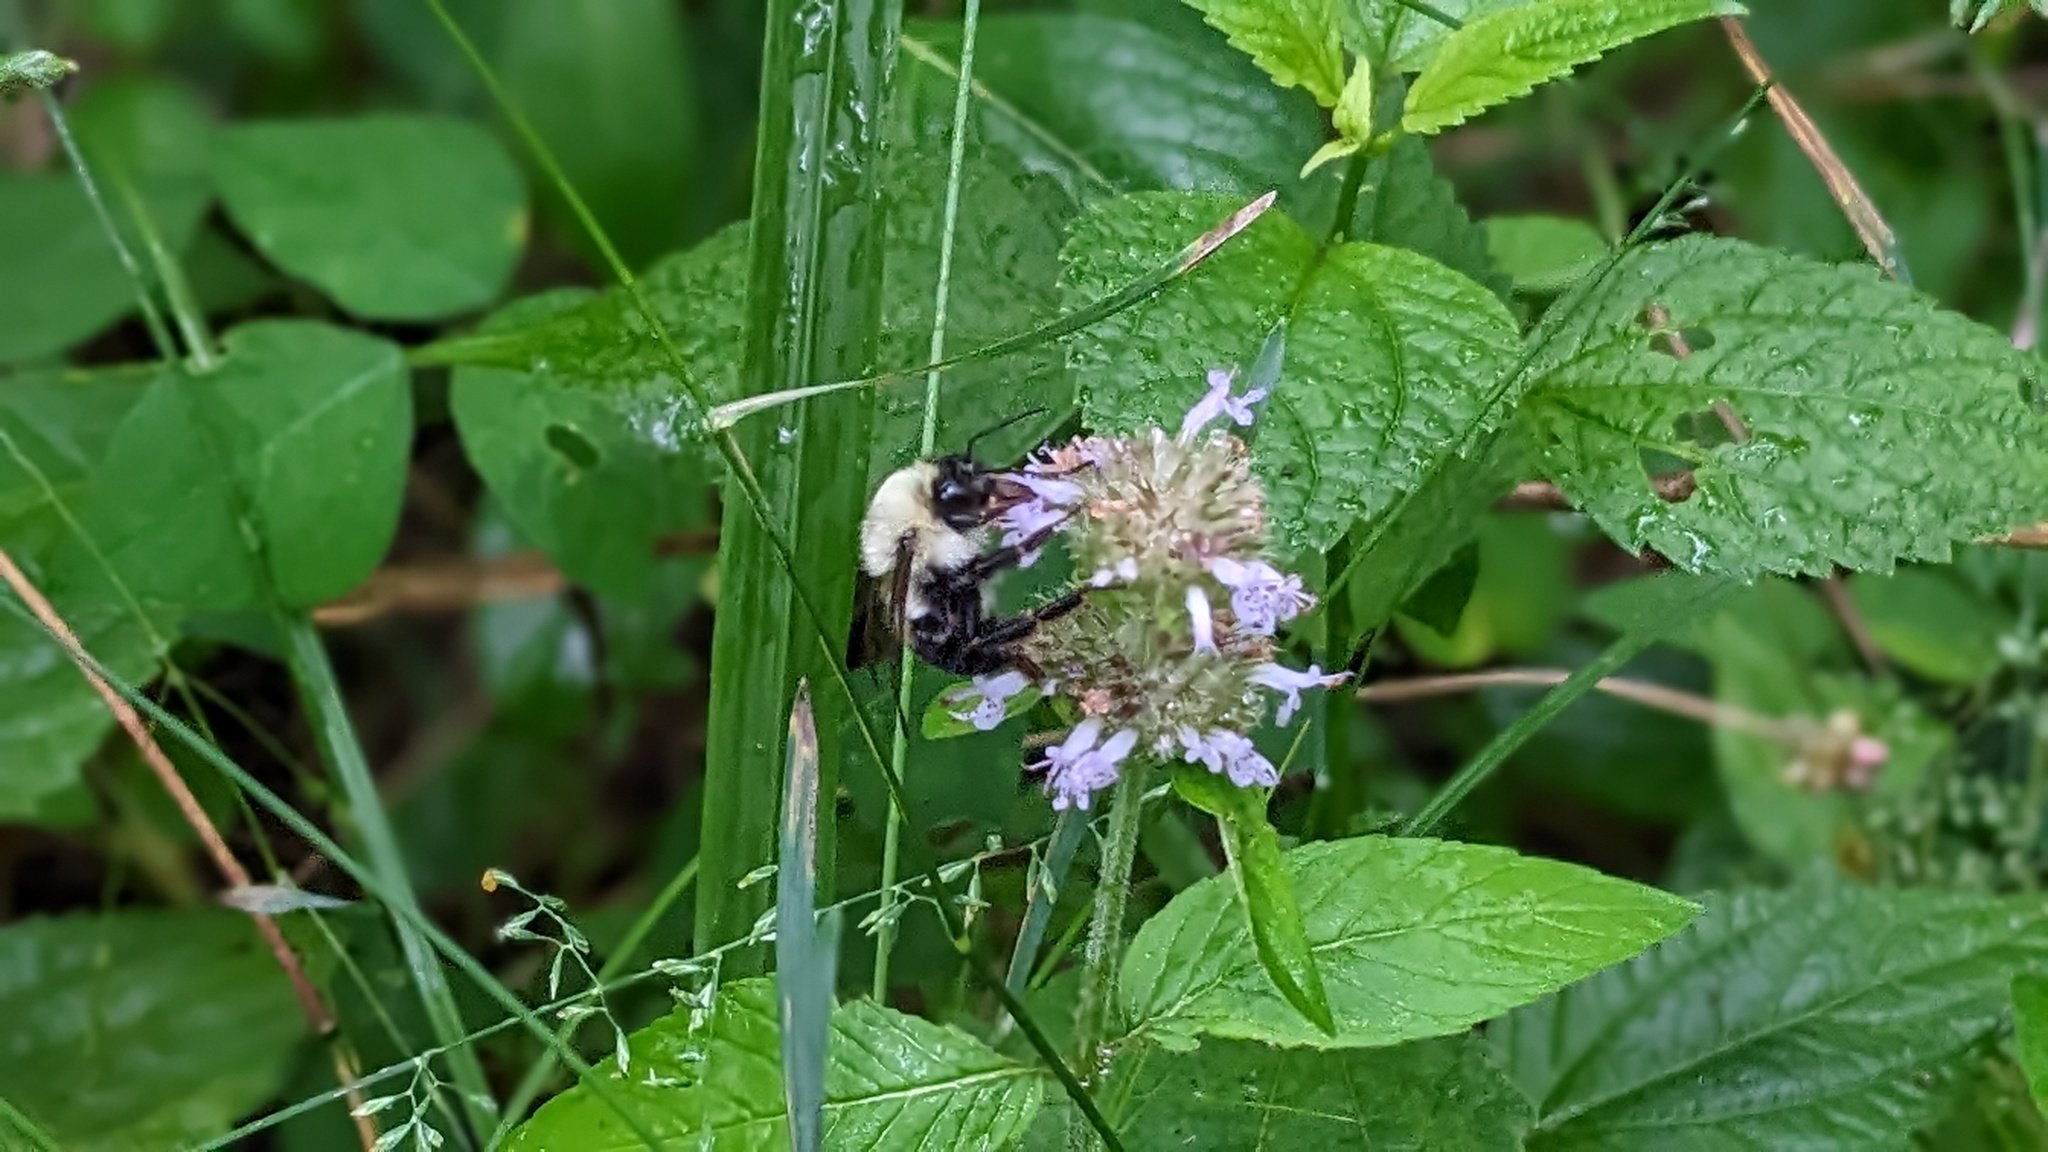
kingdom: Animalia
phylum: Arthropoda
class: Insecta
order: Hymenoptera
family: Apidae
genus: Bombus
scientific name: Bombus bimaculatus
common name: Two-spotted bumble bee
